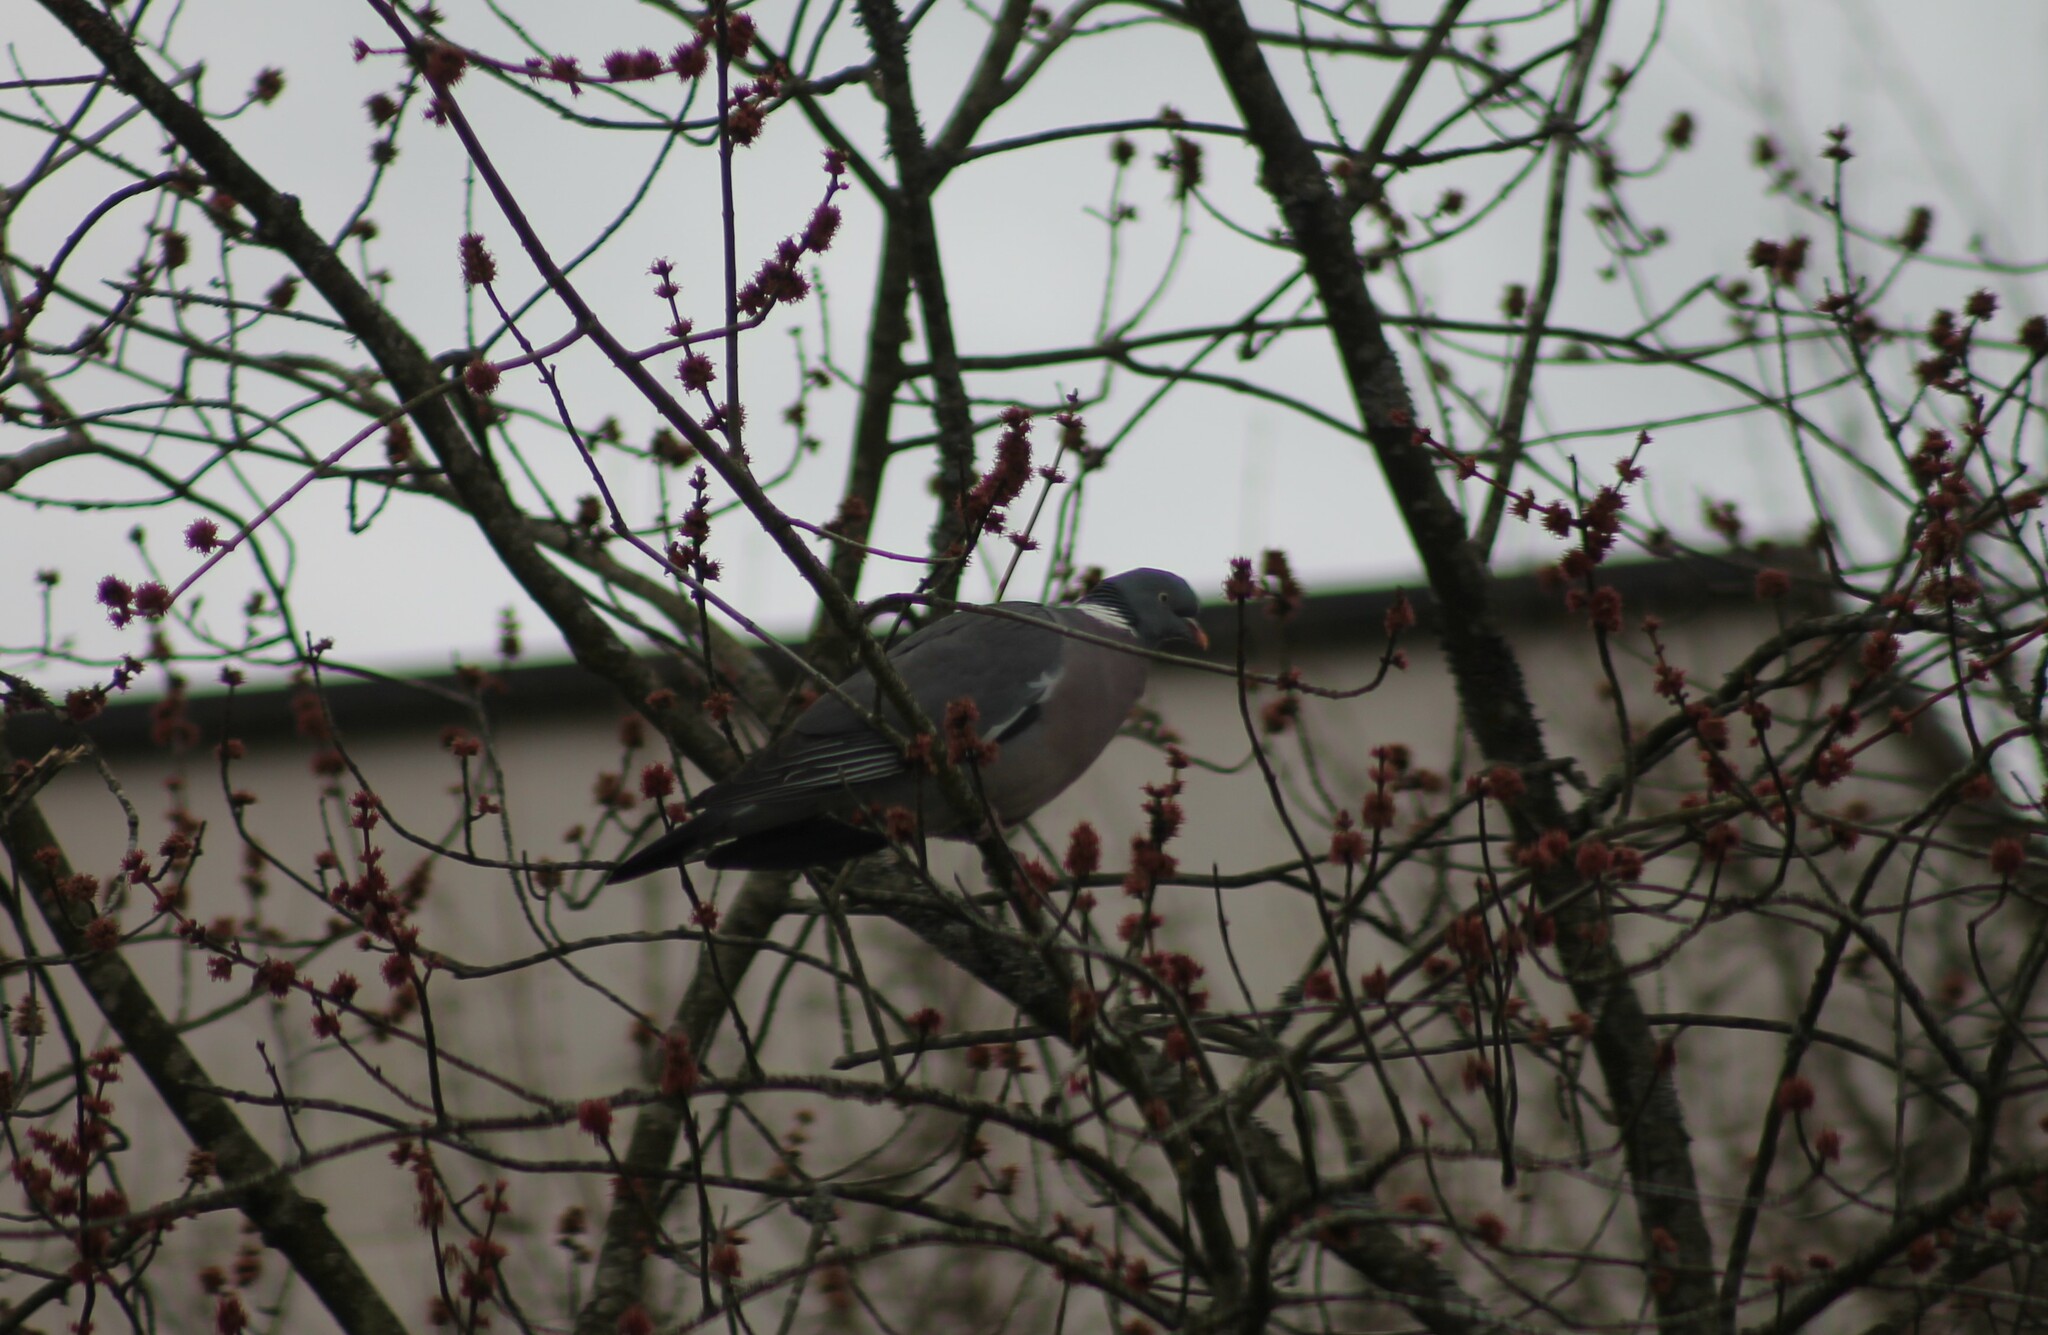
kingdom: Animalia
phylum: Chordata
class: Aves
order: Columbiformes
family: Columbidae
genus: Columba
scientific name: Columba palumbus
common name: Common wood pigeon
